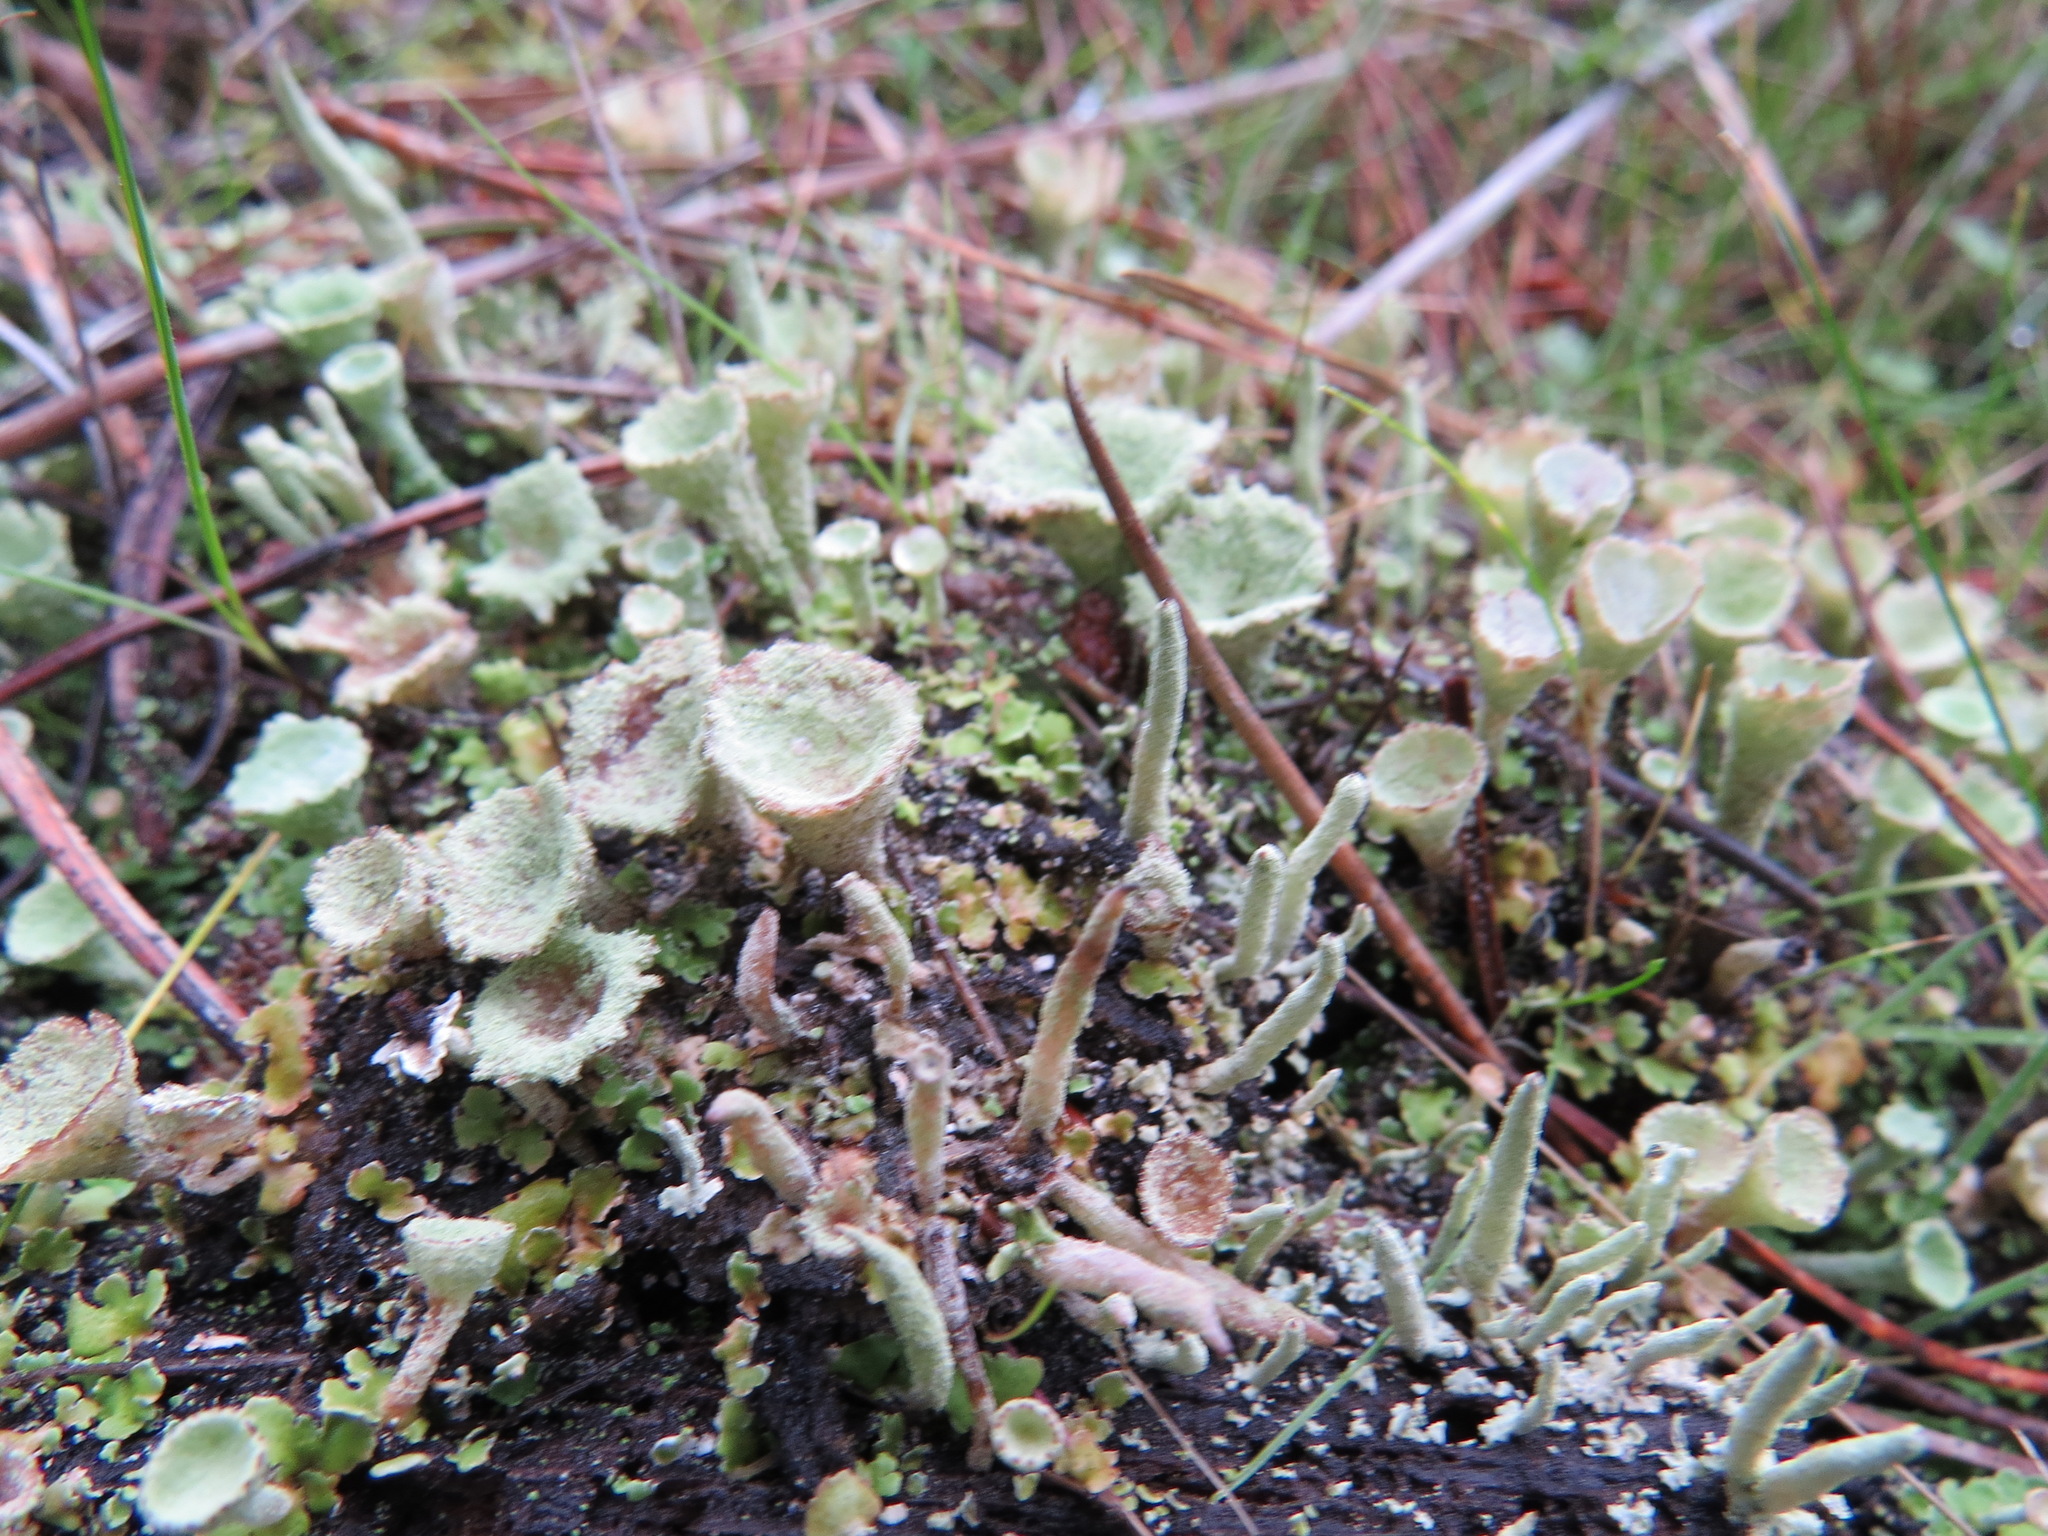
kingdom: Fungi
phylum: Ascomycota
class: Lecanoromycetes
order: Lecanorales
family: Cladoniaceae
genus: Cladonia
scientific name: Cladonia chlorophaea
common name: Mealy pixie cup
